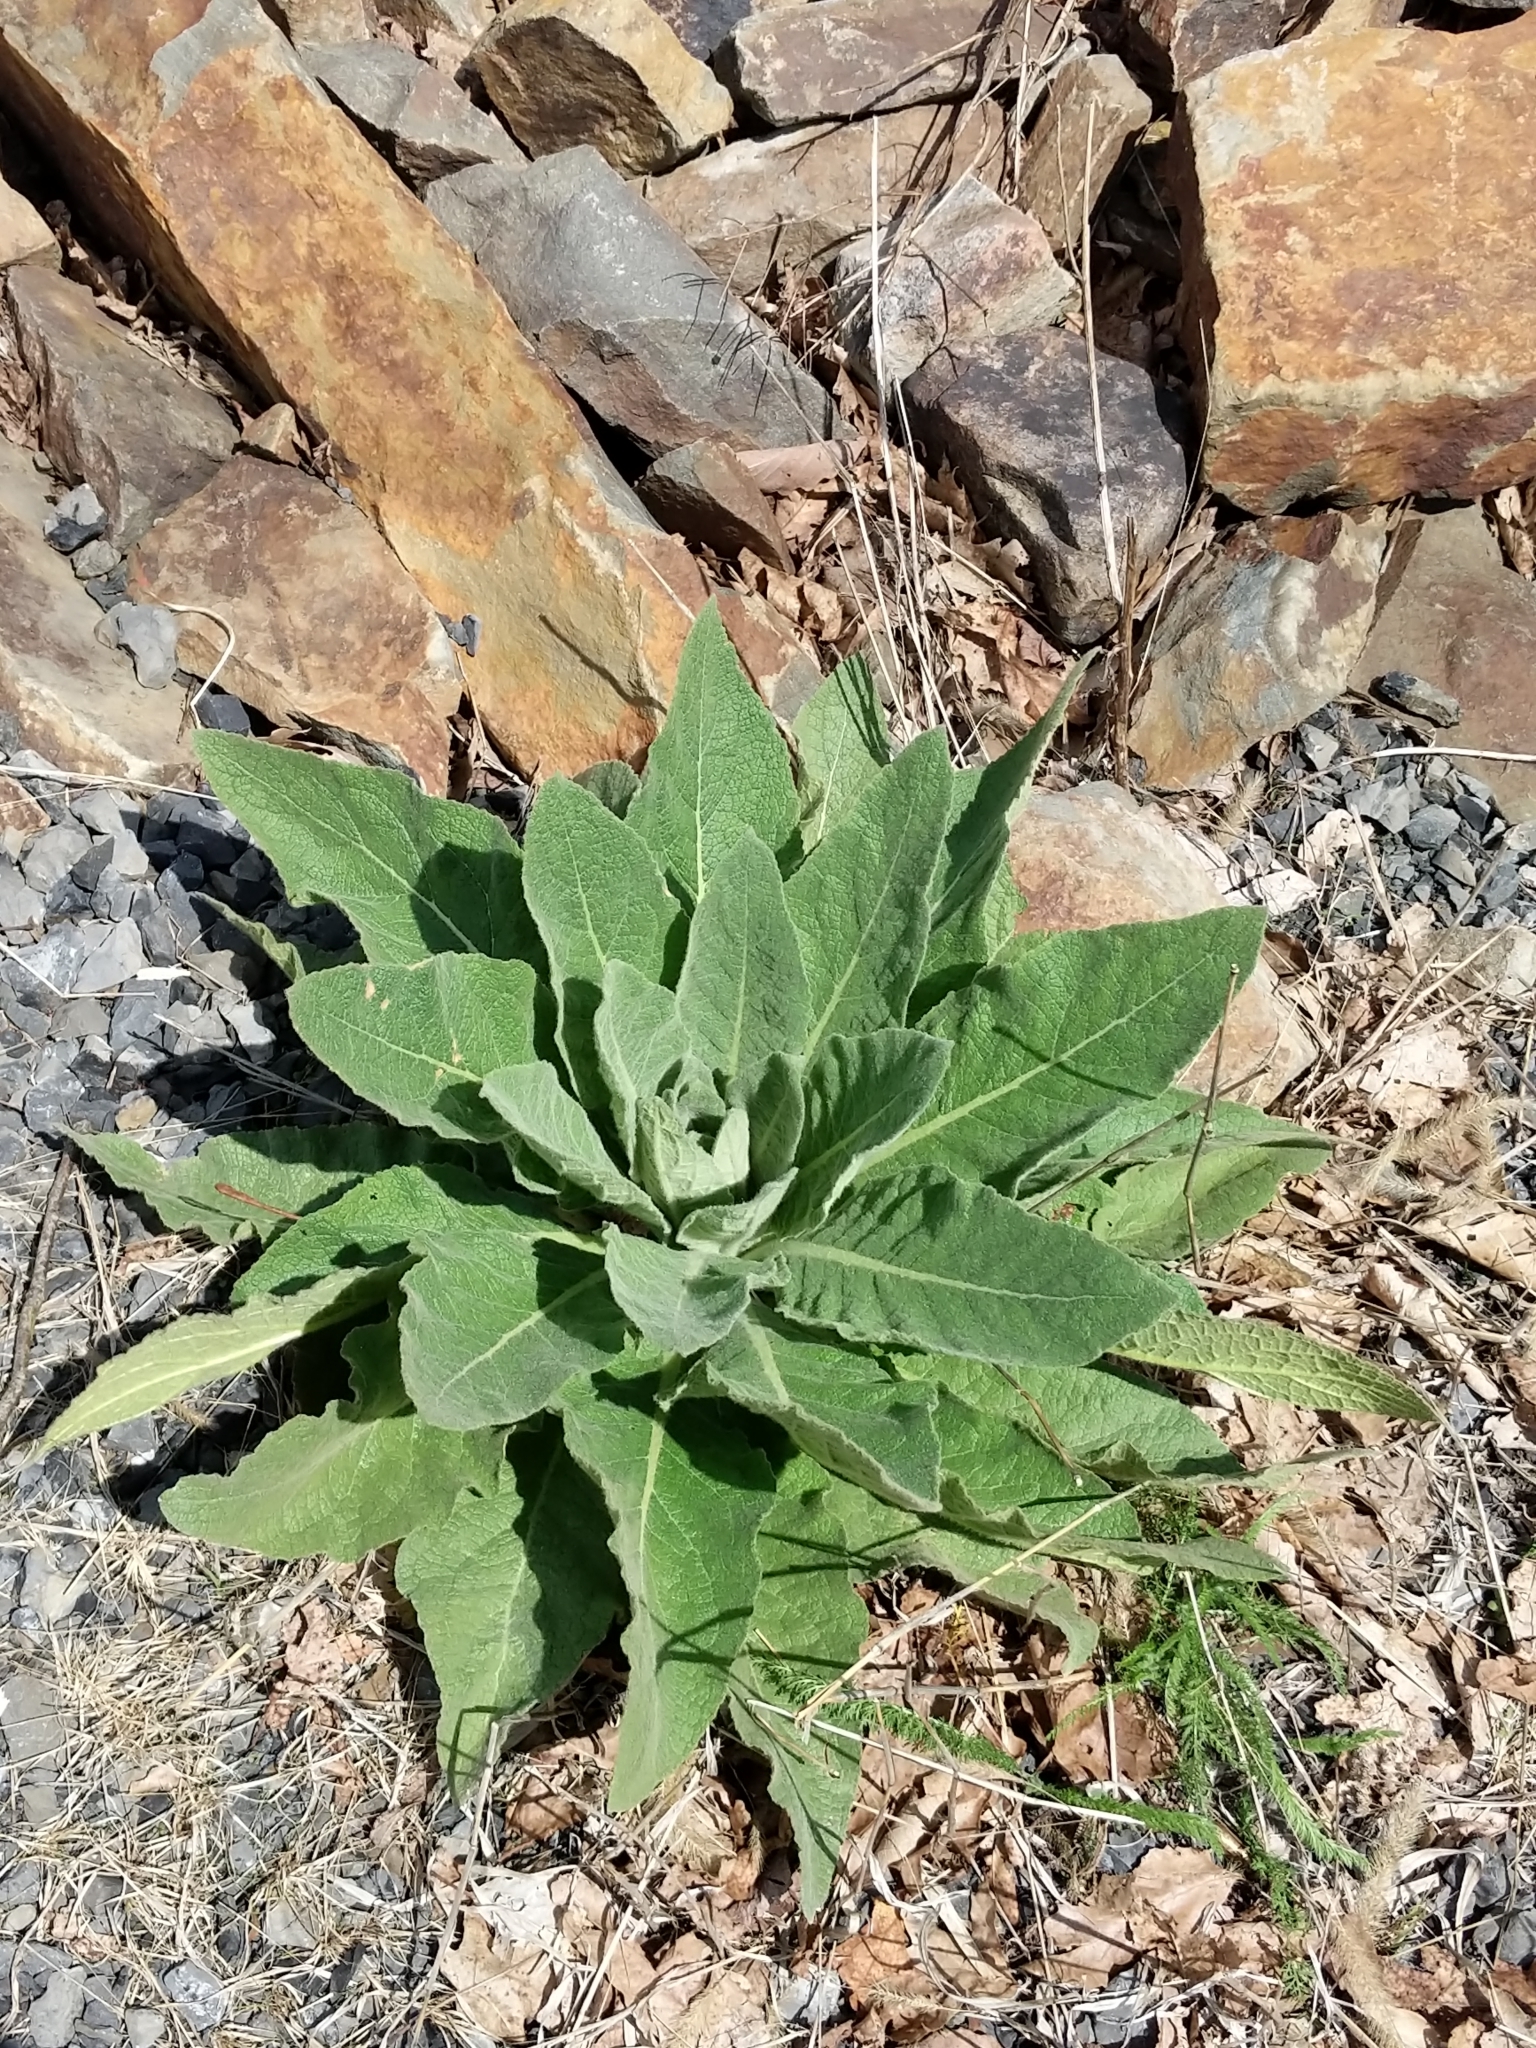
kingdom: Plantae
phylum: Tracheophyta
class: Magnoliopsida
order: Lamiales
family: Scrophulariaceae
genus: Verbascum
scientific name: Verbascum thapsus
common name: Common mullein
